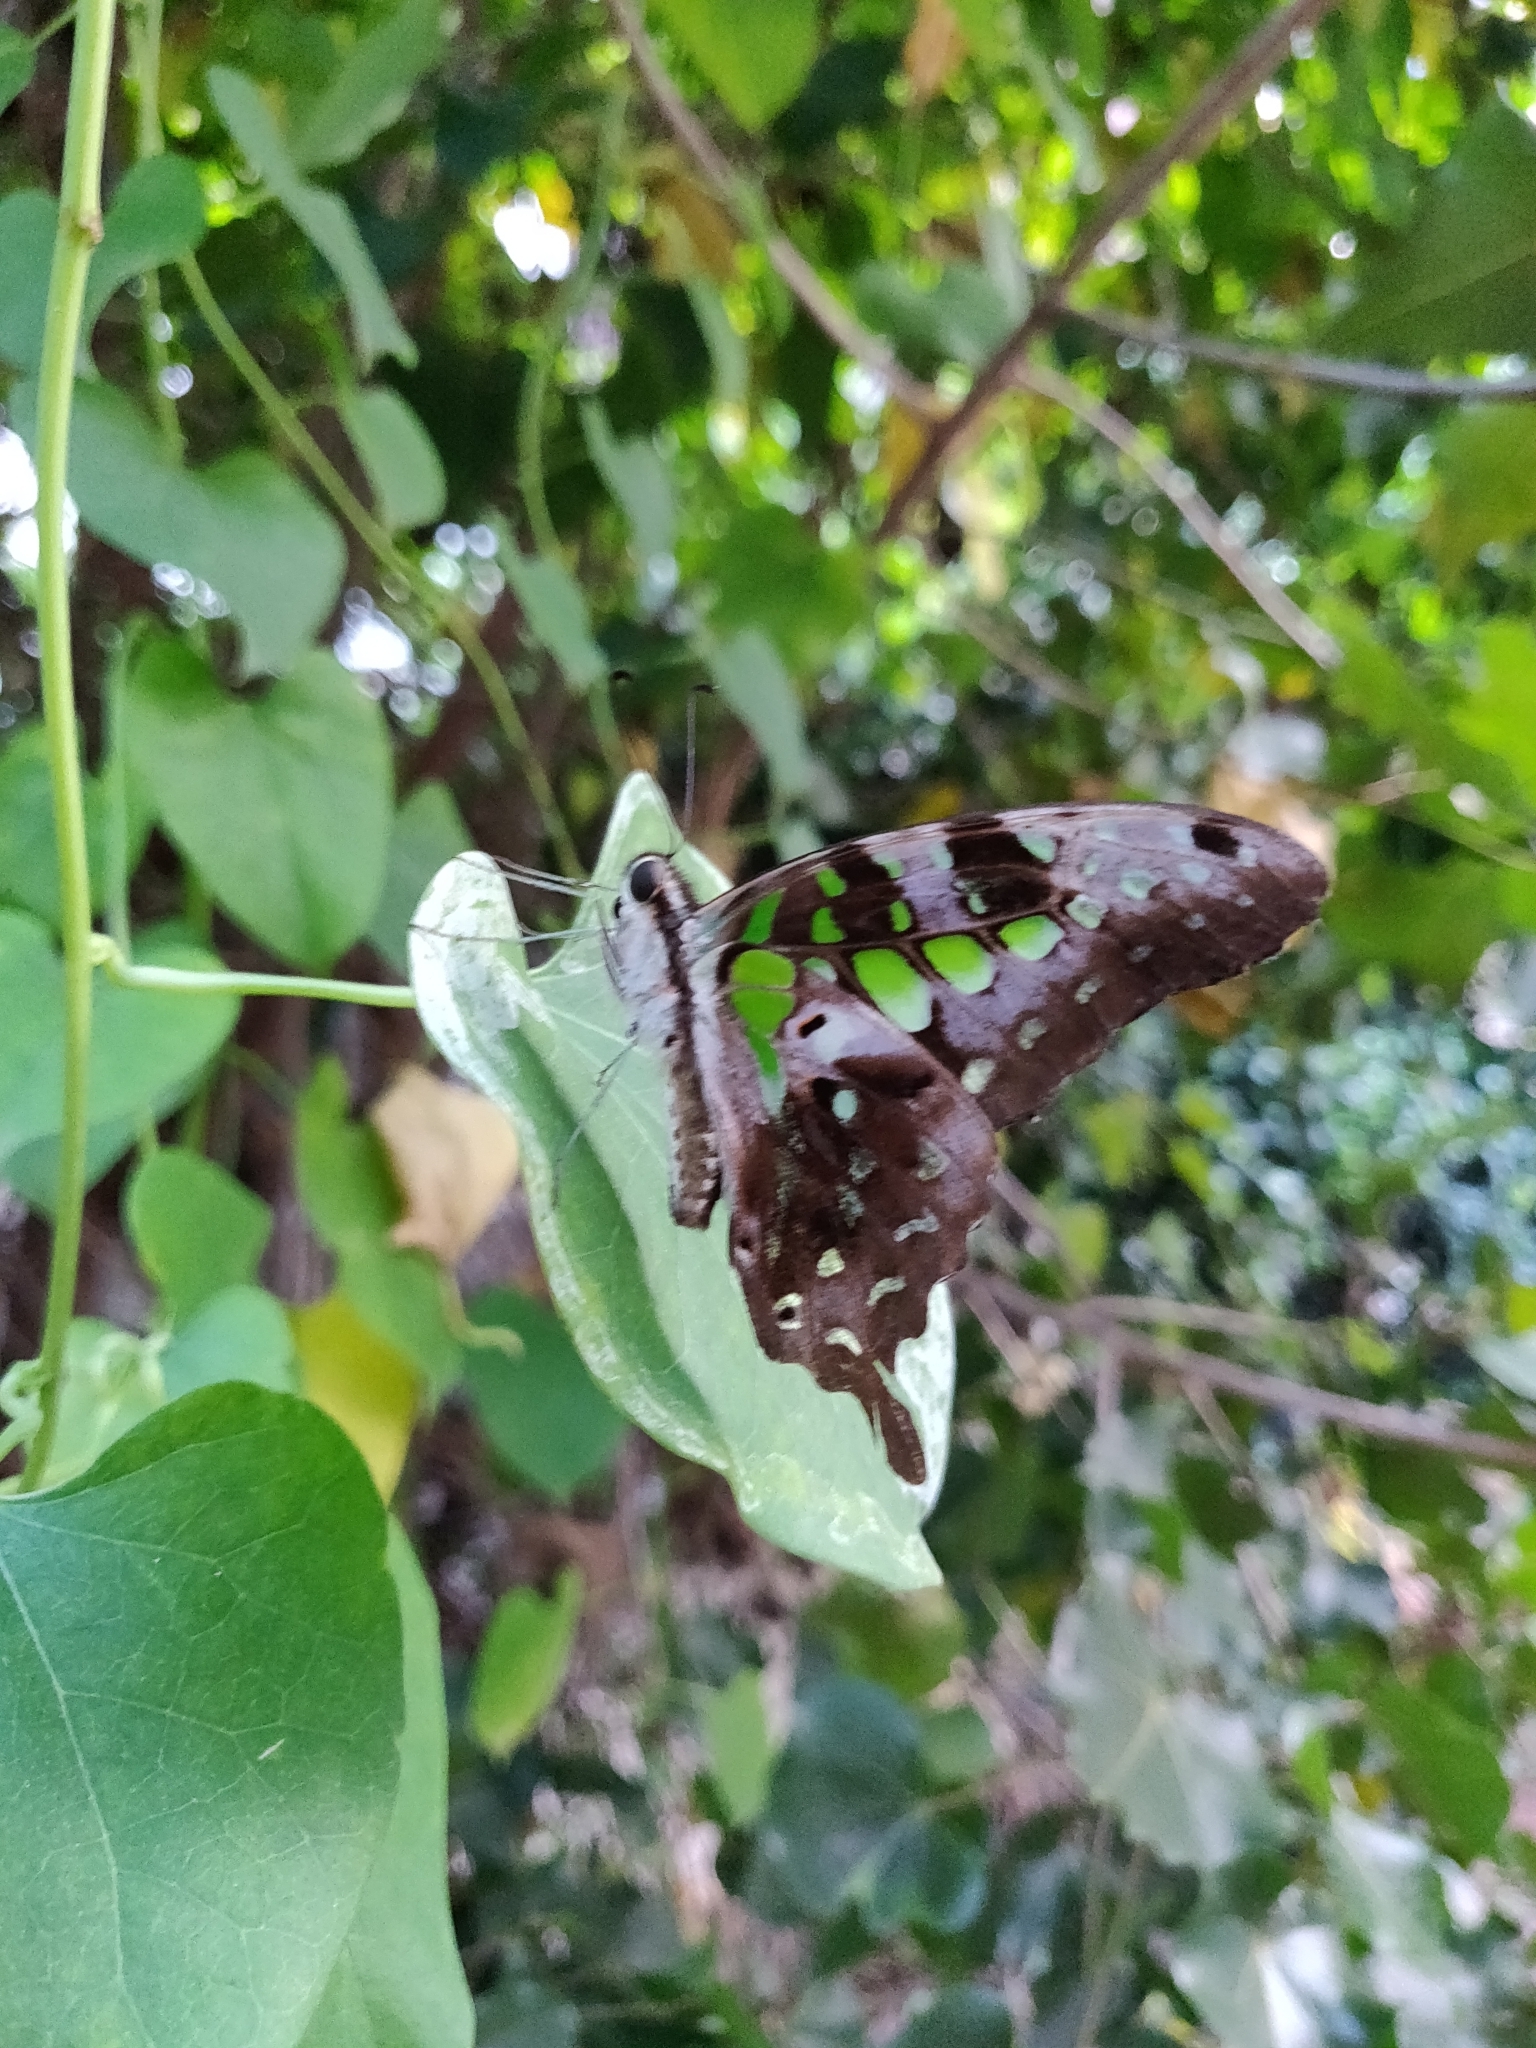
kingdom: Animalia
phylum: Arthropoda
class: Insecta
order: Lepidoptera
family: Papilionidae
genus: Graphium
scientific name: Graphium agamemnon
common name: Tailed jay
